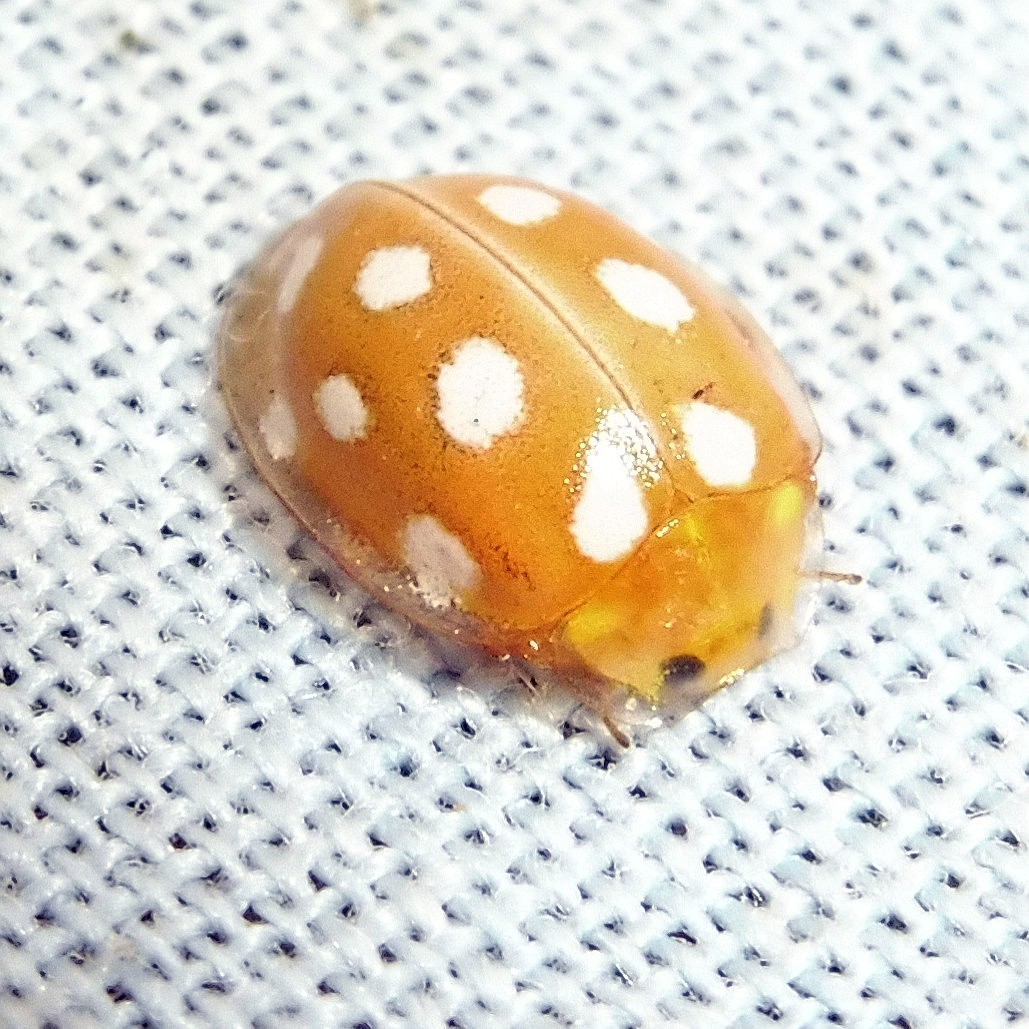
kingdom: Animalia
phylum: Arthropoda
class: Insecta
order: Coleoptera
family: Coccinellidae
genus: Halyzia
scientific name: Halyzia sedecimguttata
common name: Orange ladybird
